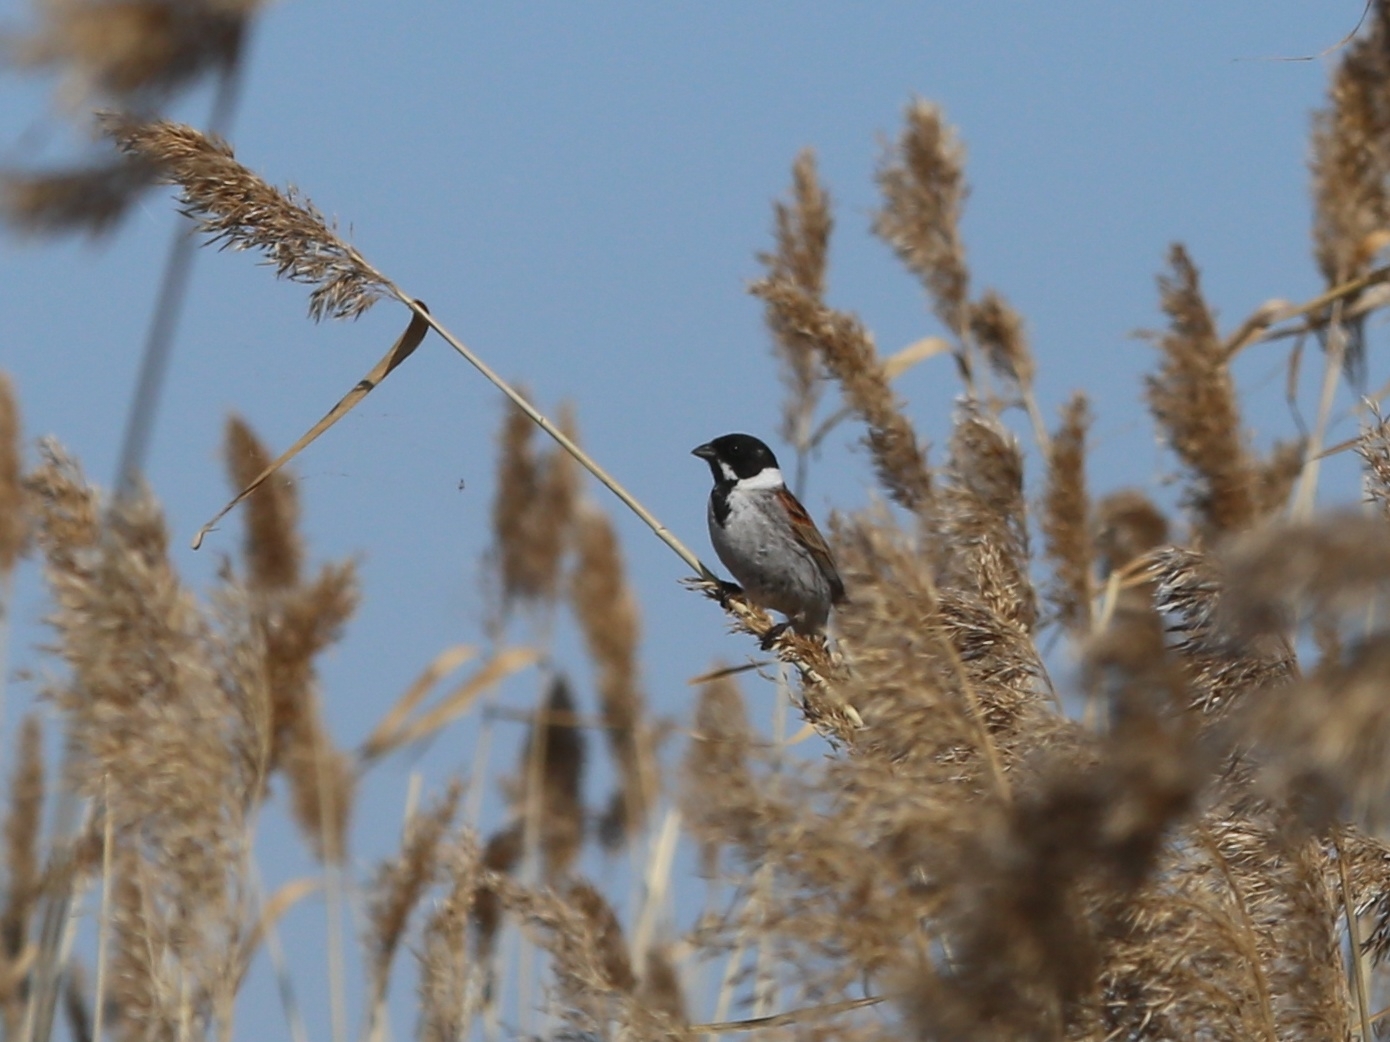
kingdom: Animalia
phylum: Chordata
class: Aves
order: Passeriformes
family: Emberizidae
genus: Emberiza
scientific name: Emberiza schoeniclus
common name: Reed bunting
